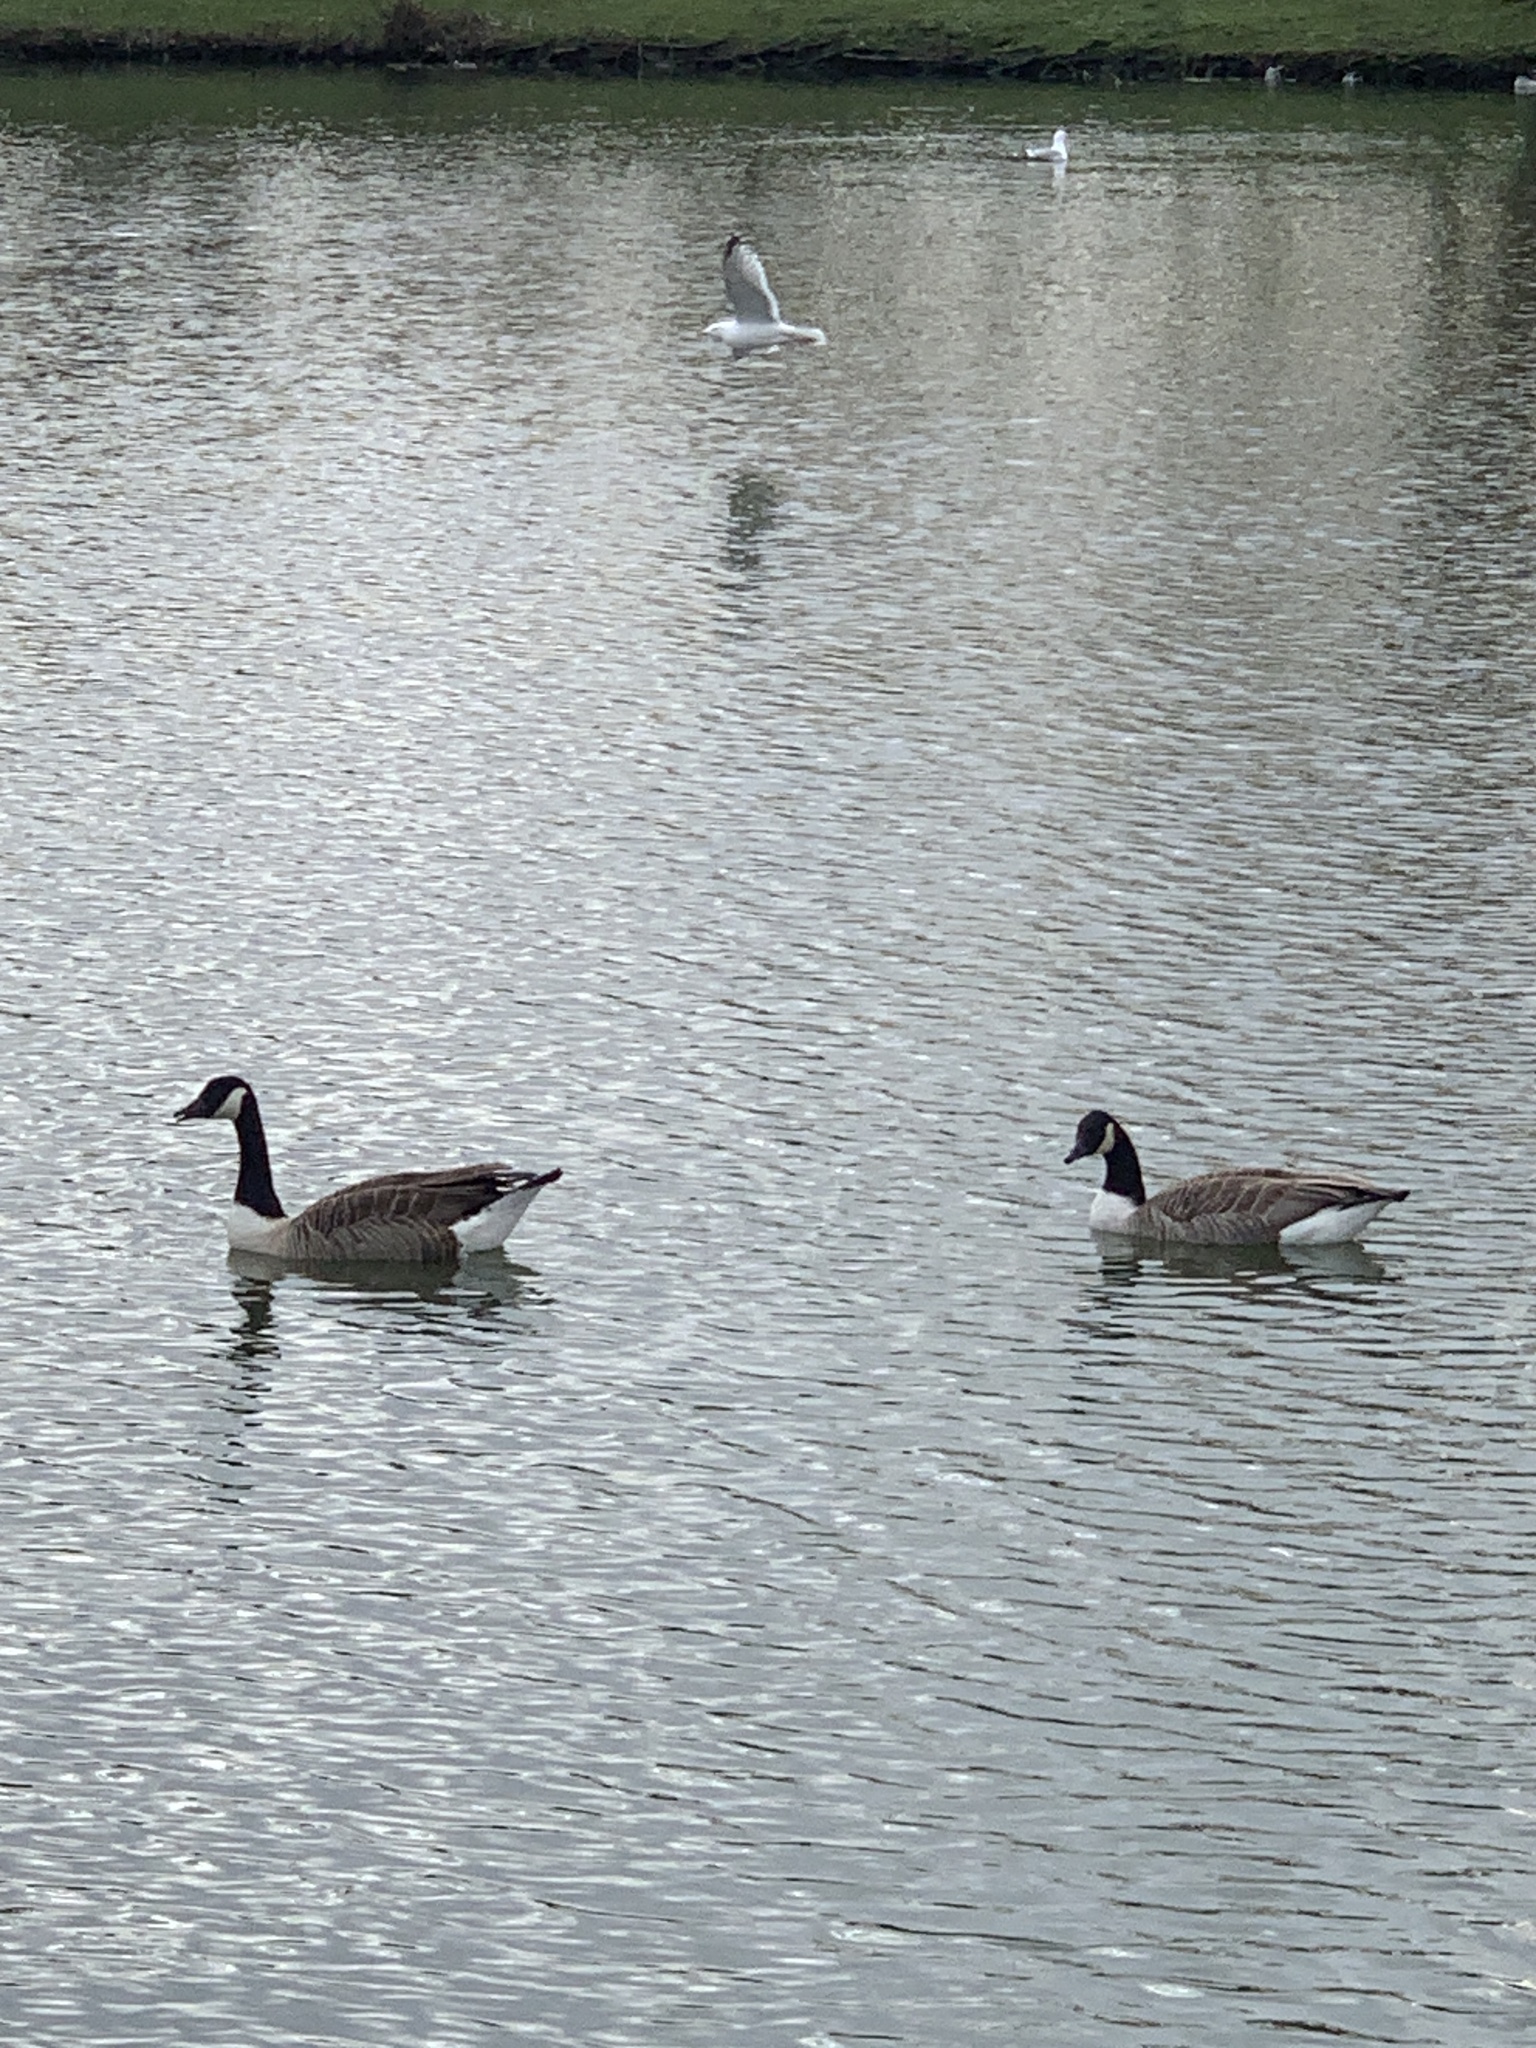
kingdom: Animalia
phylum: Chordata
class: Aves
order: Anseriformes
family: Anatidae
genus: Branta
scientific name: Branta canadensis
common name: Canada goose
